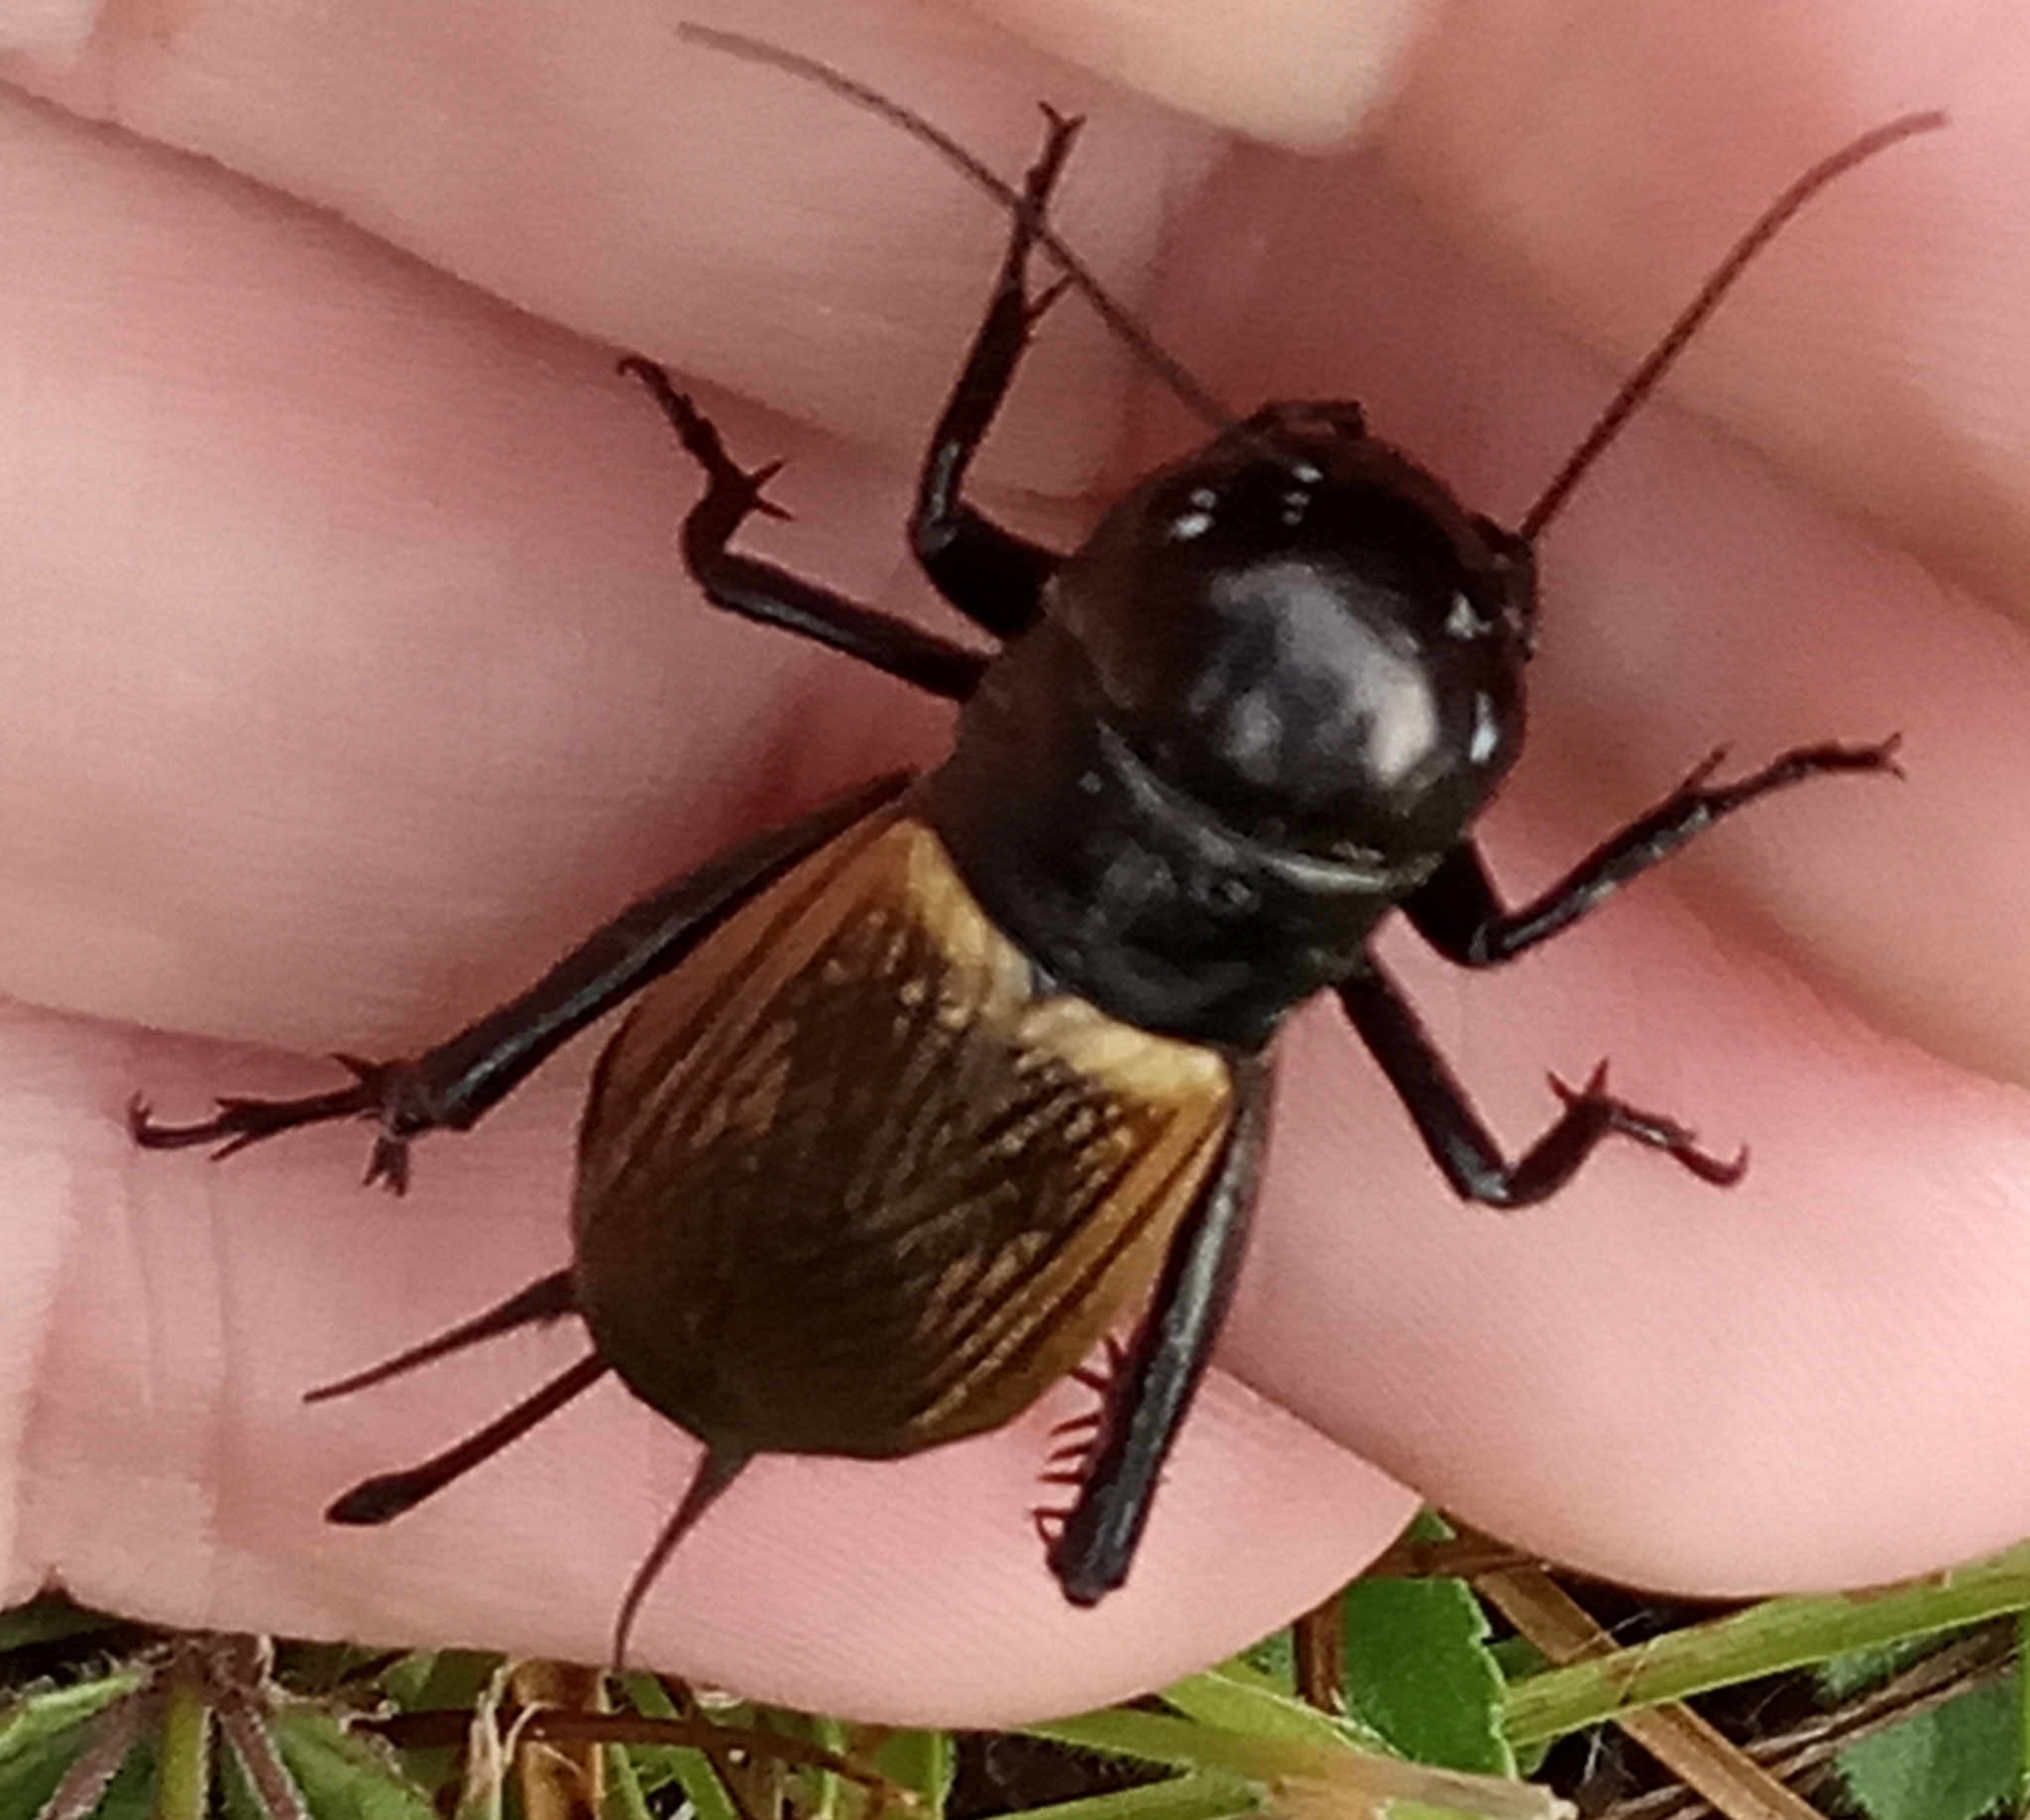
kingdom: Animalia
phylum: Arthropoda
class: Insecta
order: Orthoptera
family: Gryllidae
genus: Gryllus
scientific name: Gryllus campestris
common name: Field cricket
